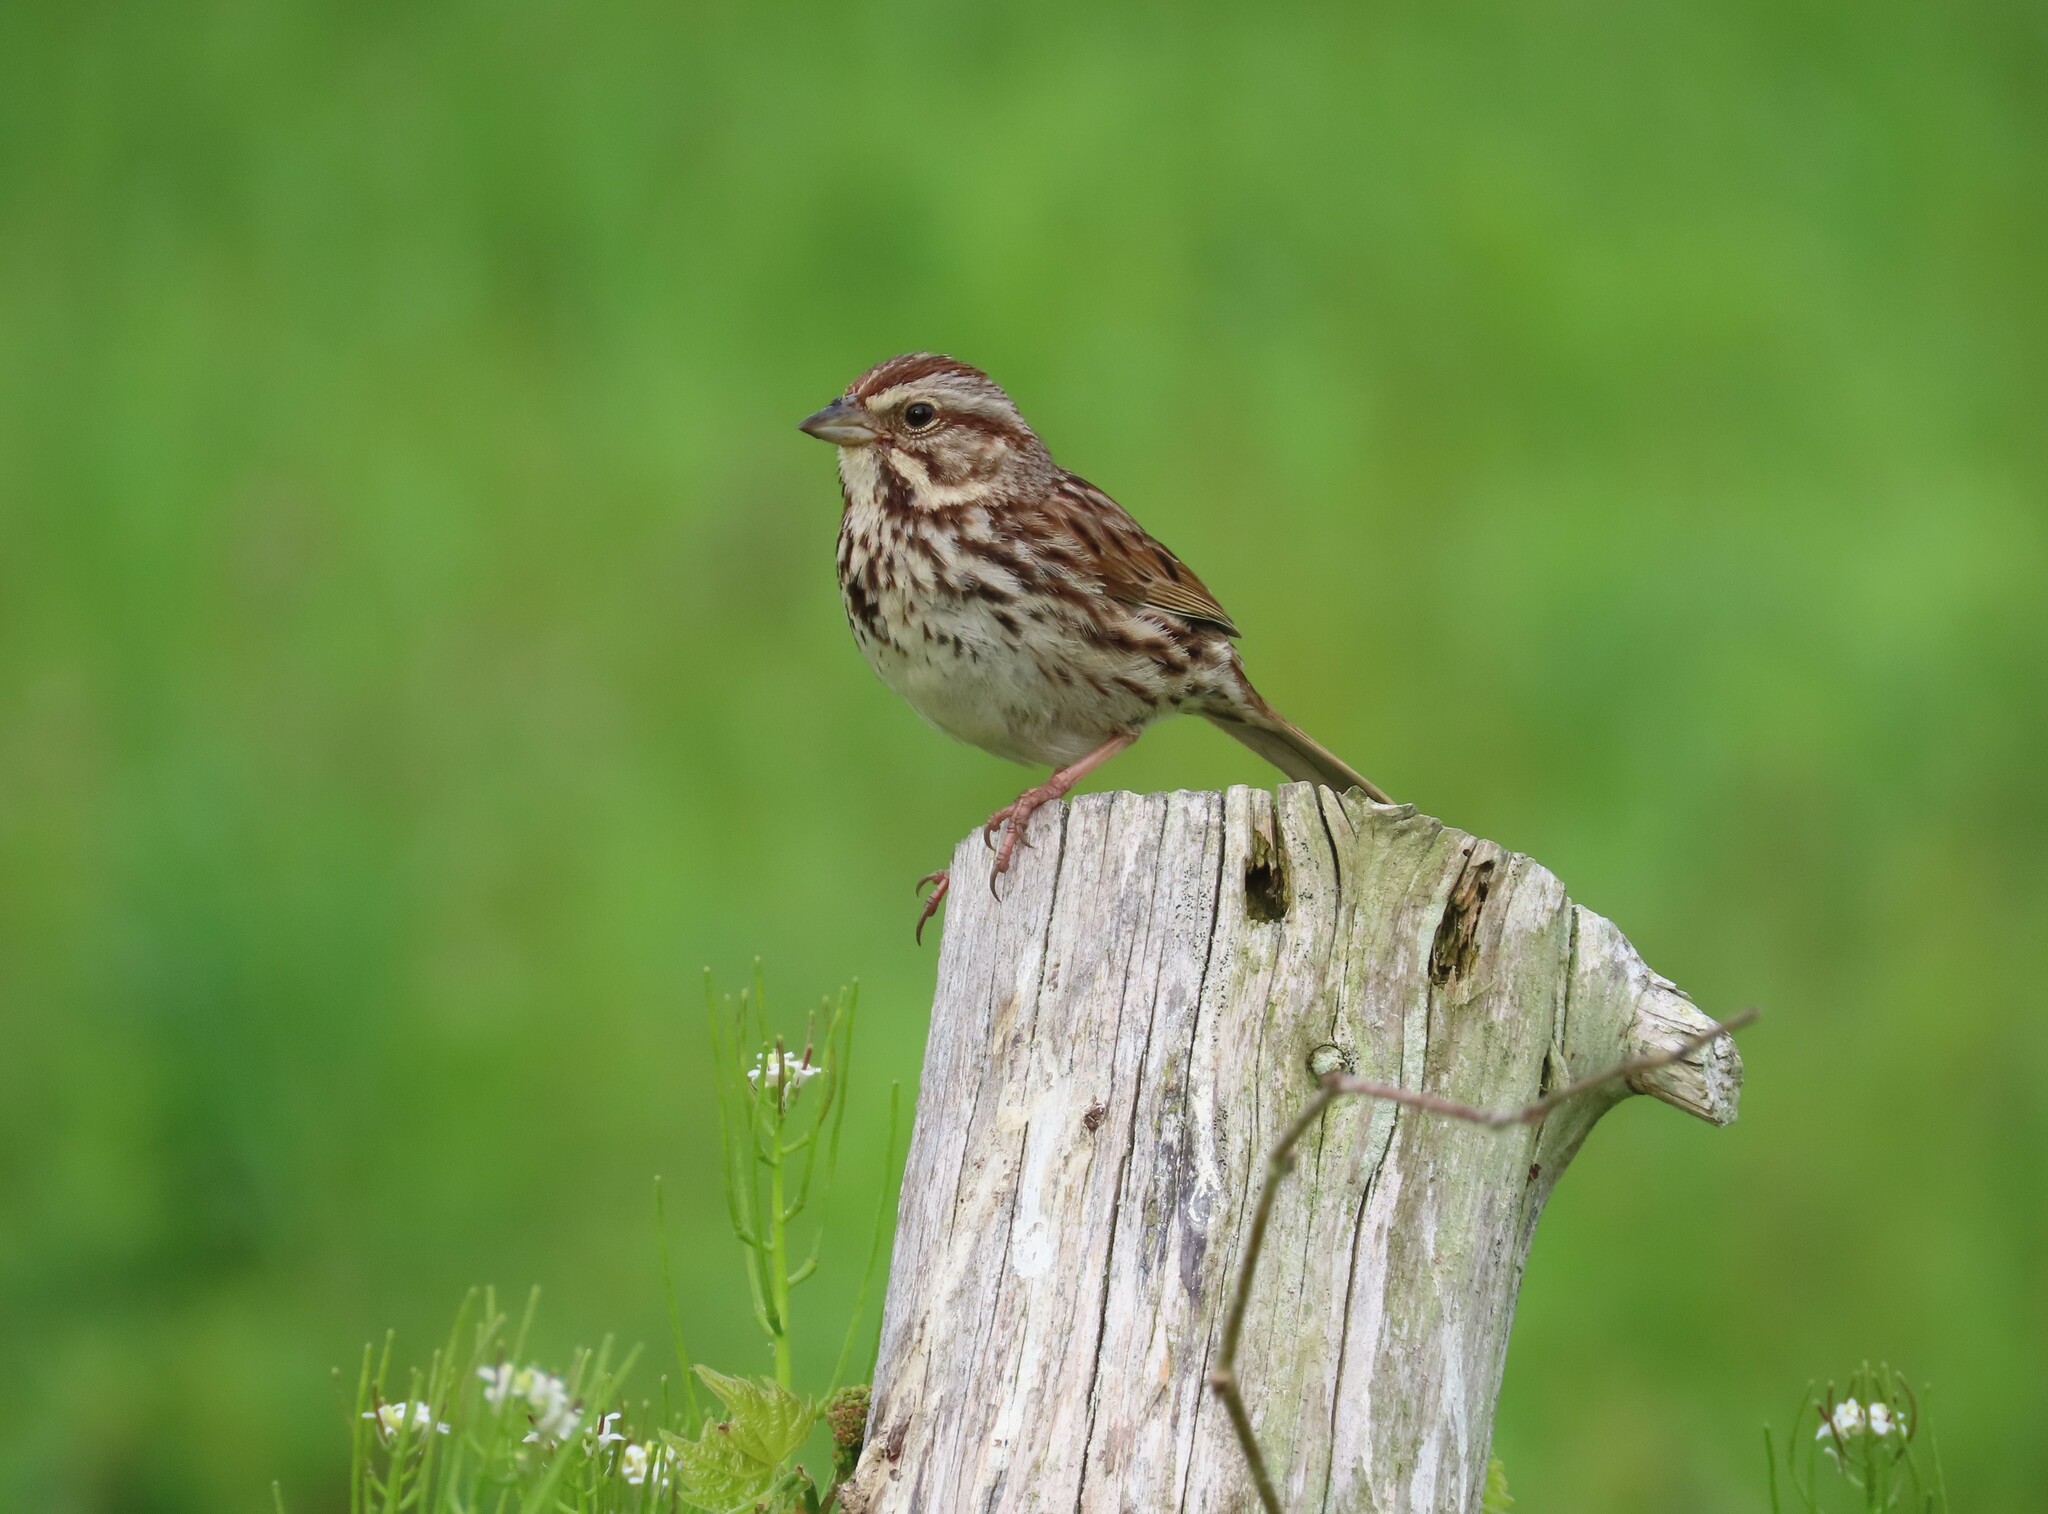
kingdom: Animalia
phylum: Chordata
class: Aves
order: Passeriformes
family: Passerellidae
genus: Melospiza
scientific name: Melospiza melodia
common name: Song sparrow
